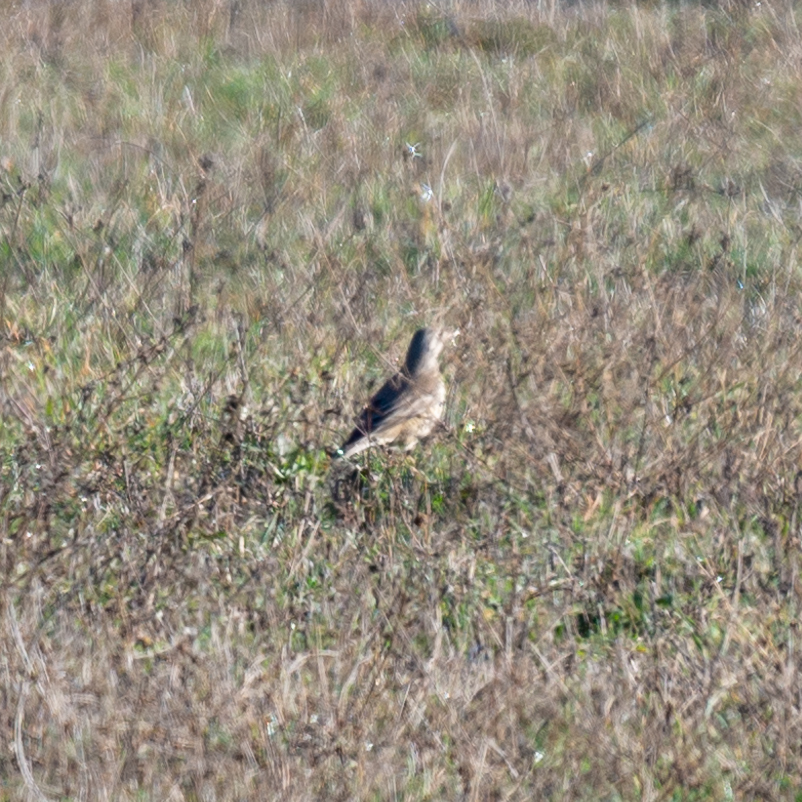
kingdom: Animalia
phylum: Chordata
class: Aves
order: Passeriformes
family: Turdidae
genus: Turdus
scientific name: Turdus viscivorus
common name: Mistle thrush
